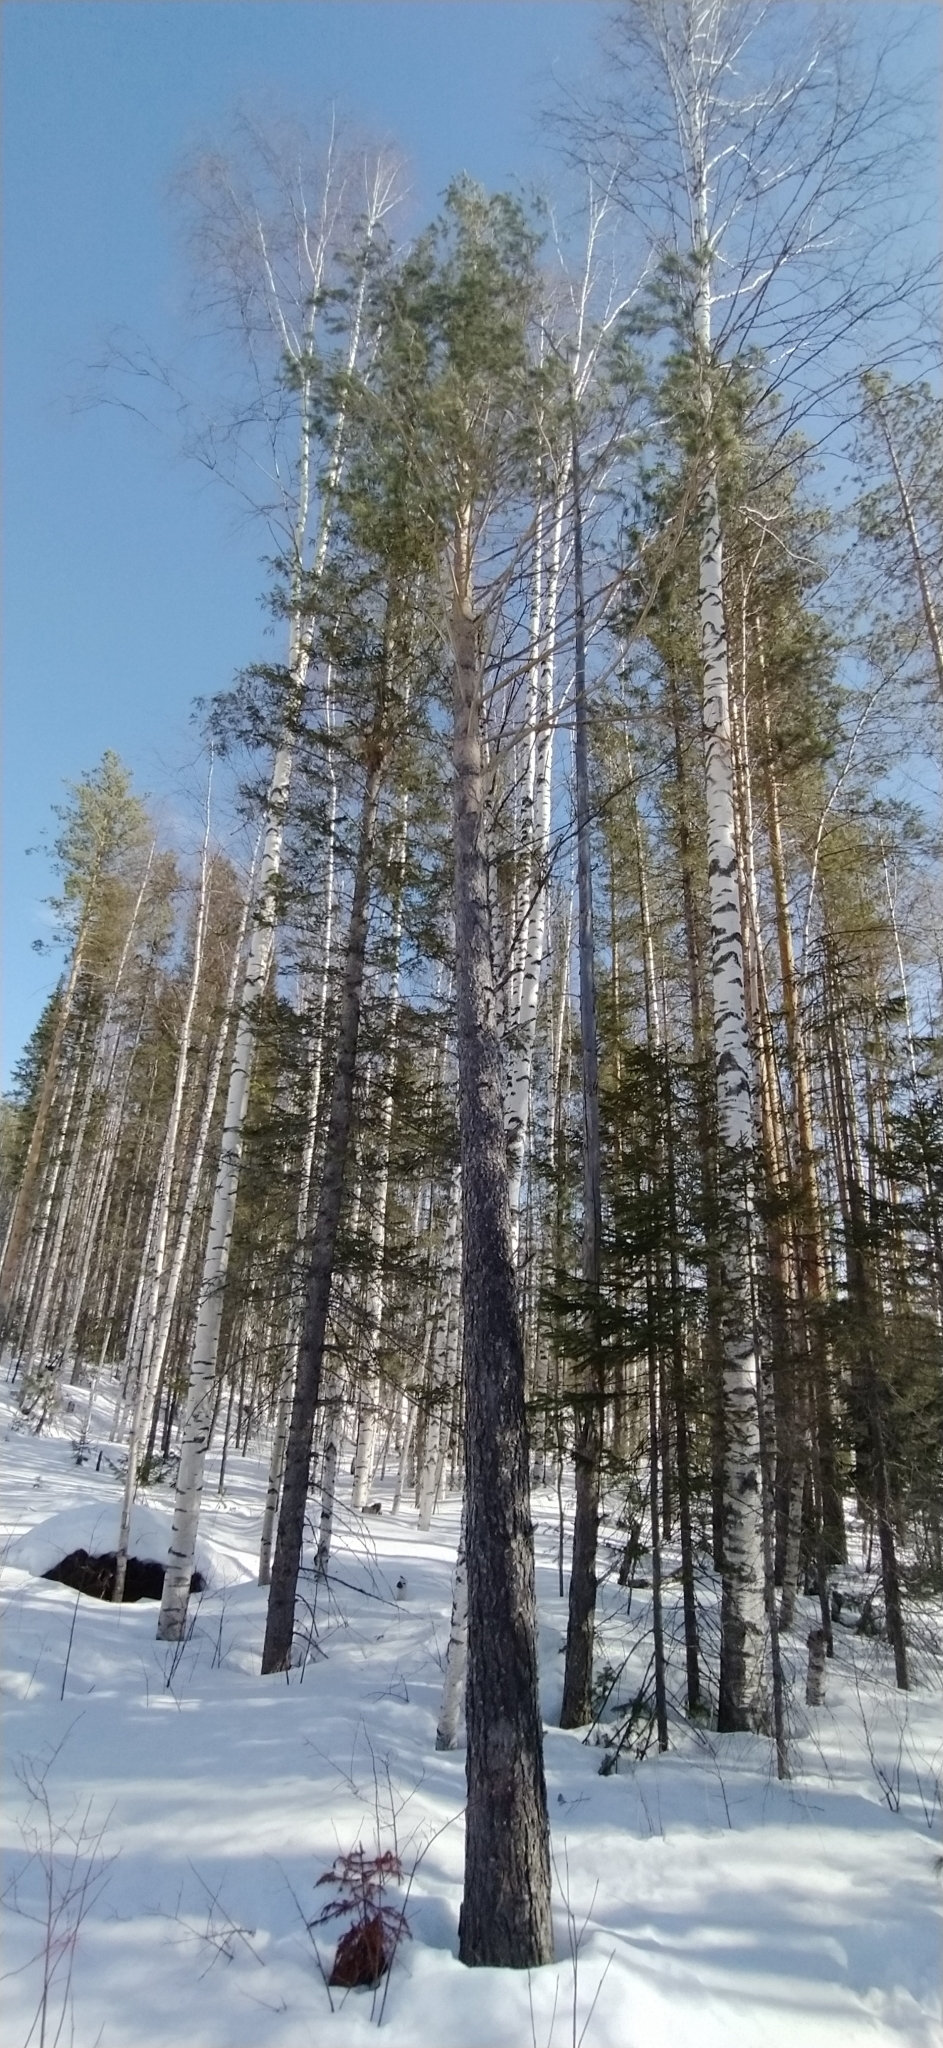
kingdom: Plantae
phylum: Tracheophyta
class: Pinopsida
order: Pinales
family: Pinaceae
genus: Pinus
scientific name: Pinus sylvestris
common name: Scots pine
